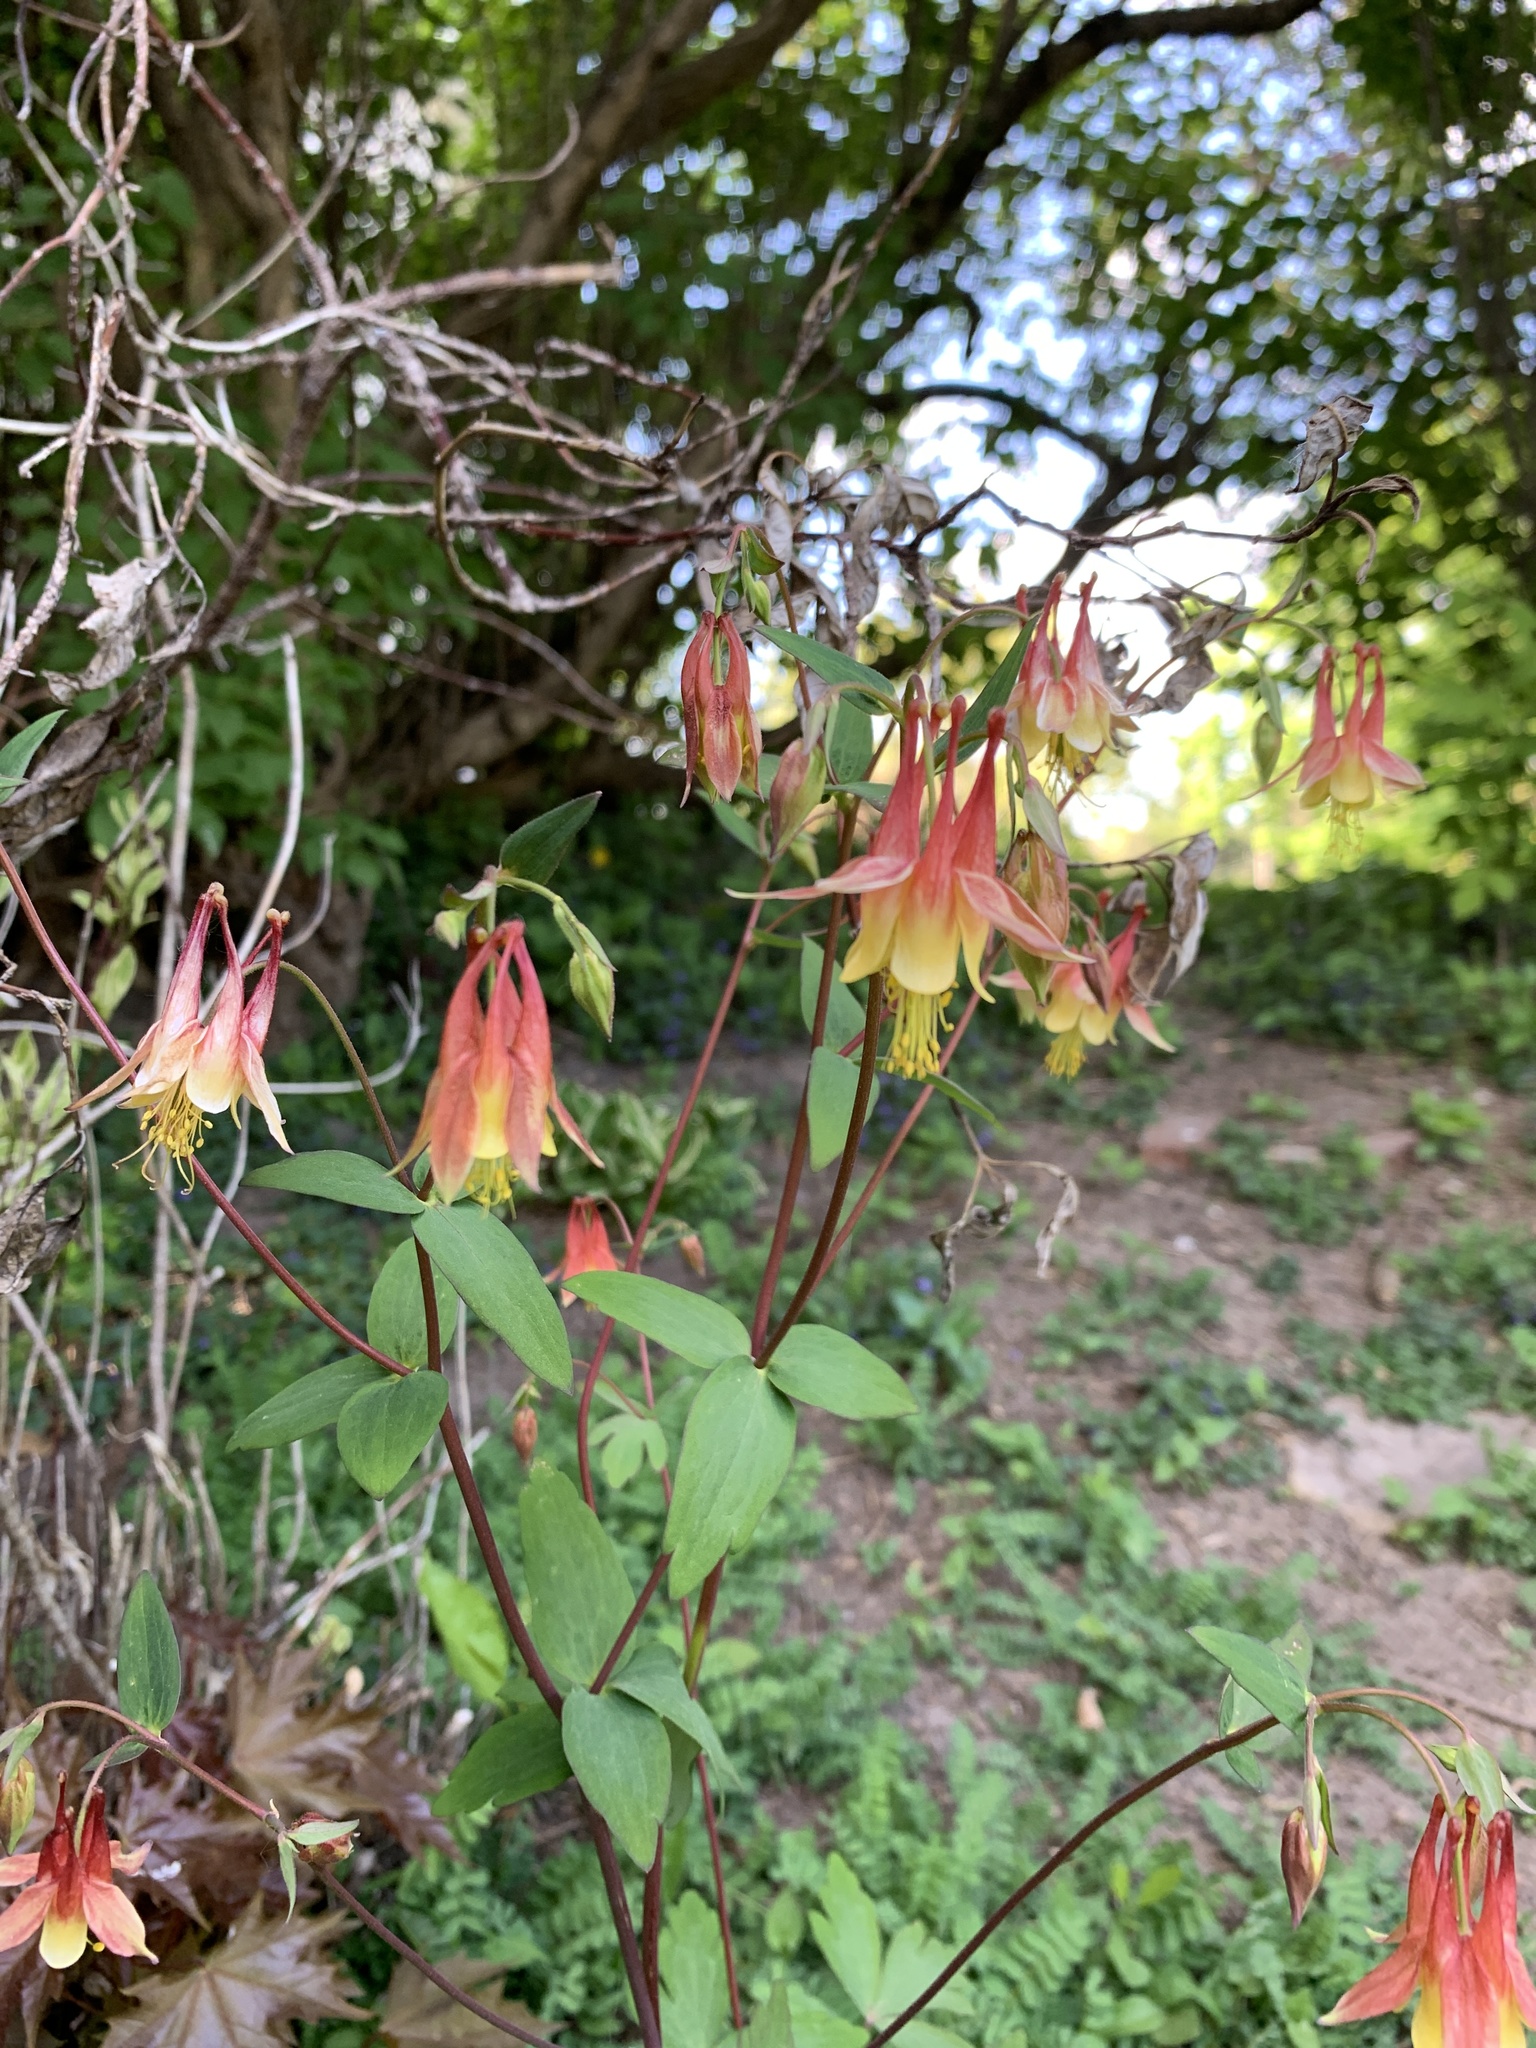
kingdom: Plantae
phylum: Tracheophyta
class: Magnoliopsida
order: Ranunculales
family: Ranunculaceae
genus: Aquilegia
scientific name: Aquilegia canadensis
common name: American columbine
